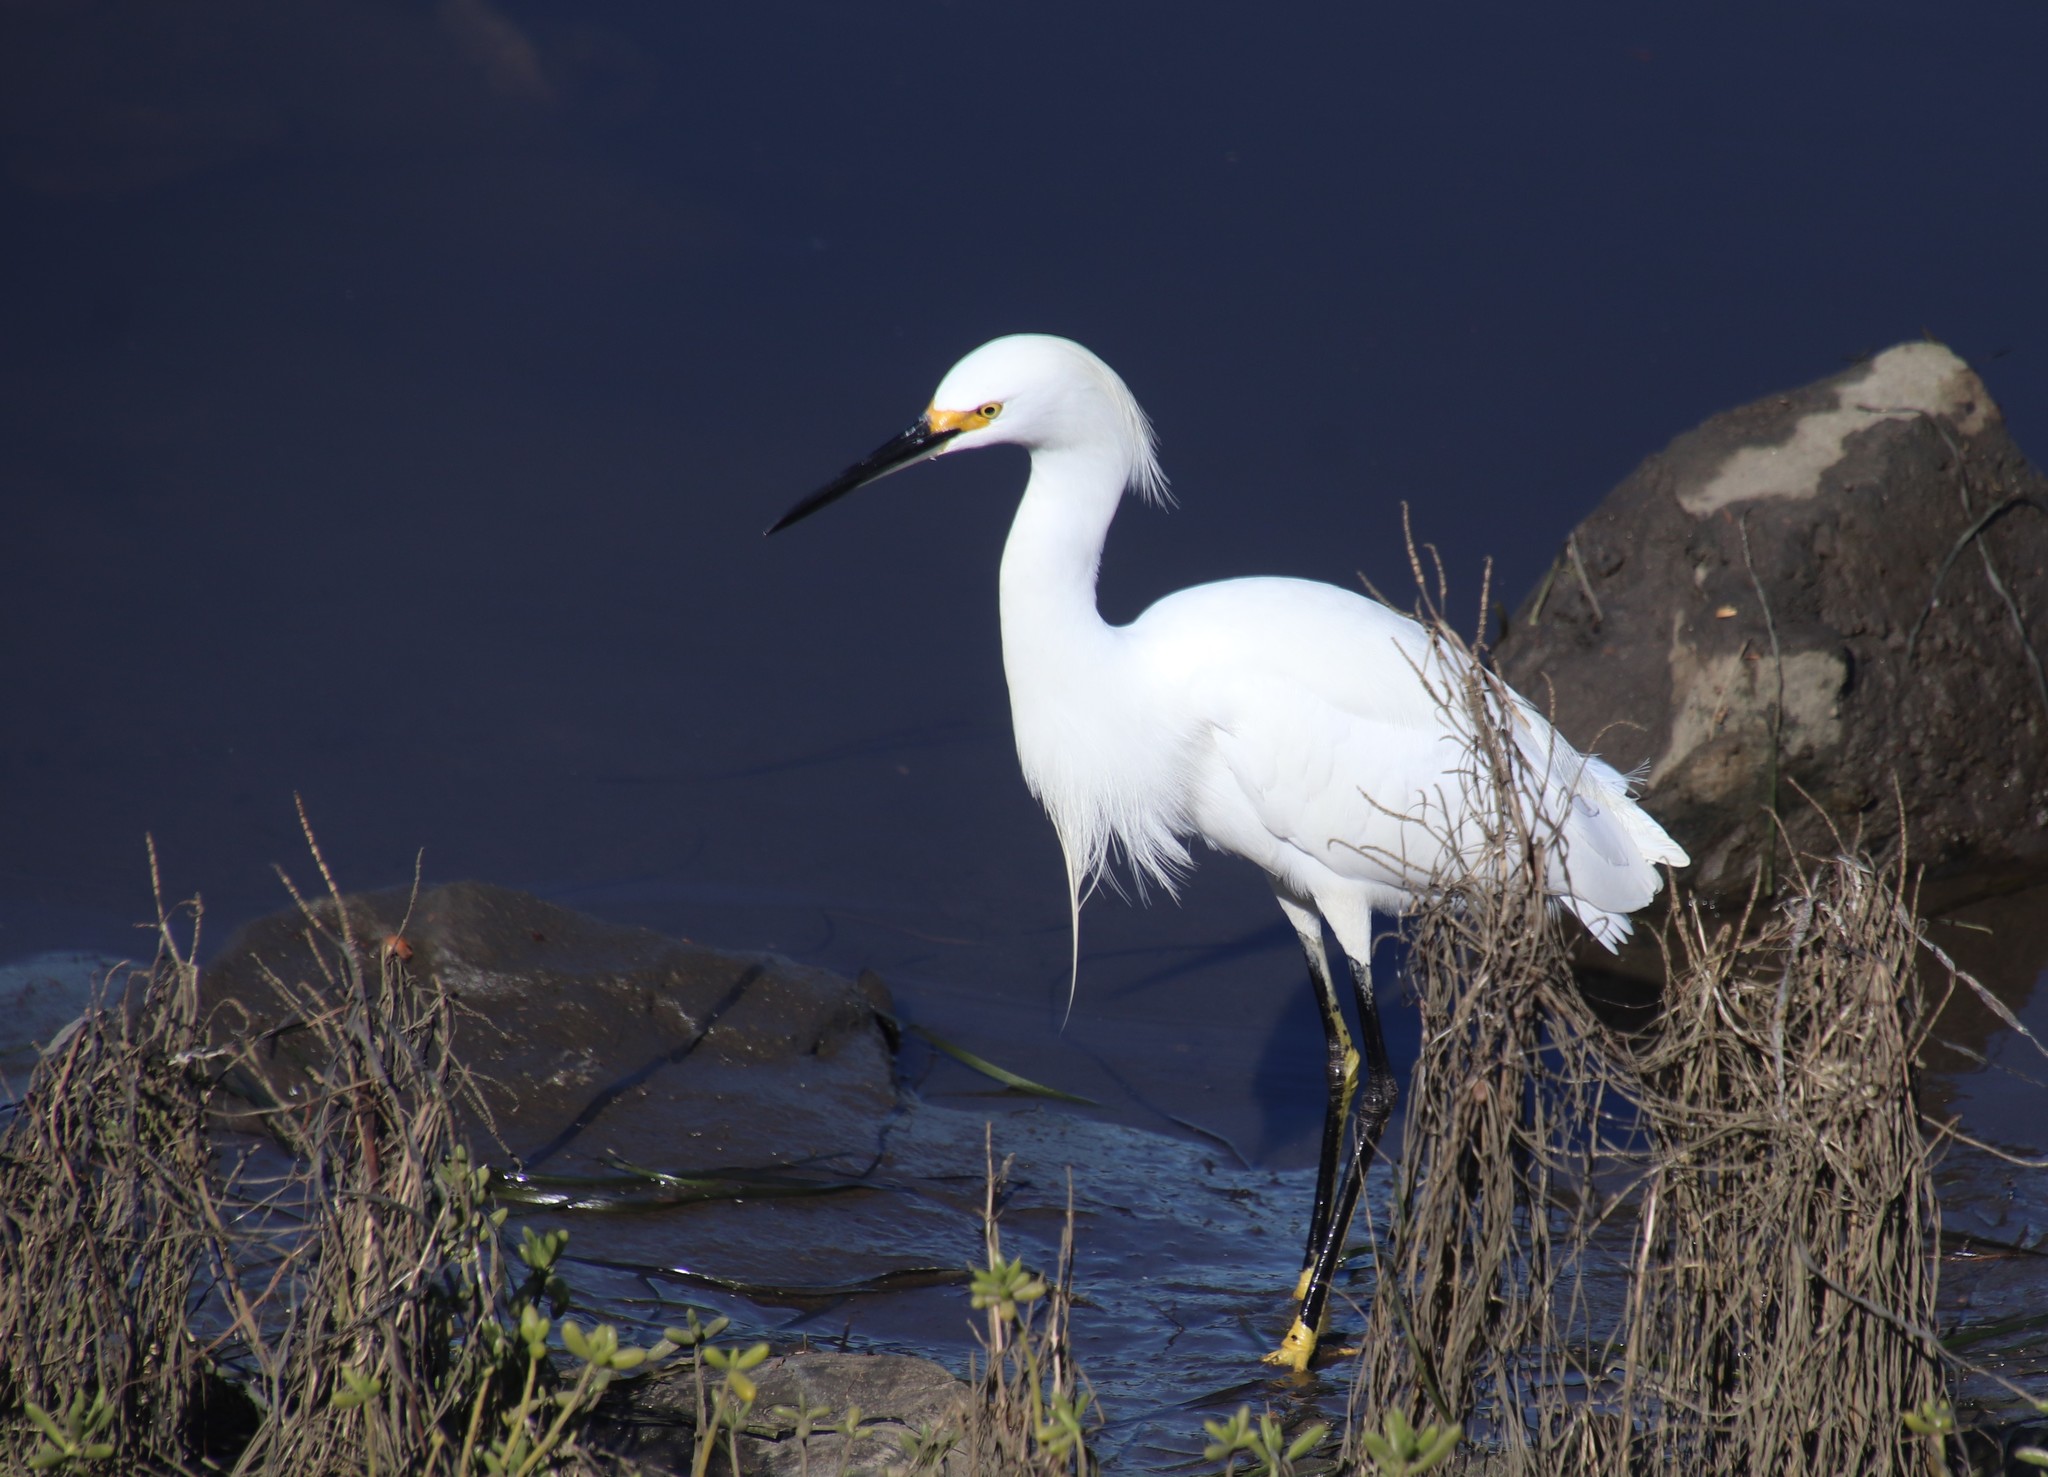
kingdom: Animalia
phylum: Chordata
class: Aves
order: Pelecaniformes
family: Ardeidae
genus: Egretta
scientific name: Egretta thula
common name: Snowy egret
